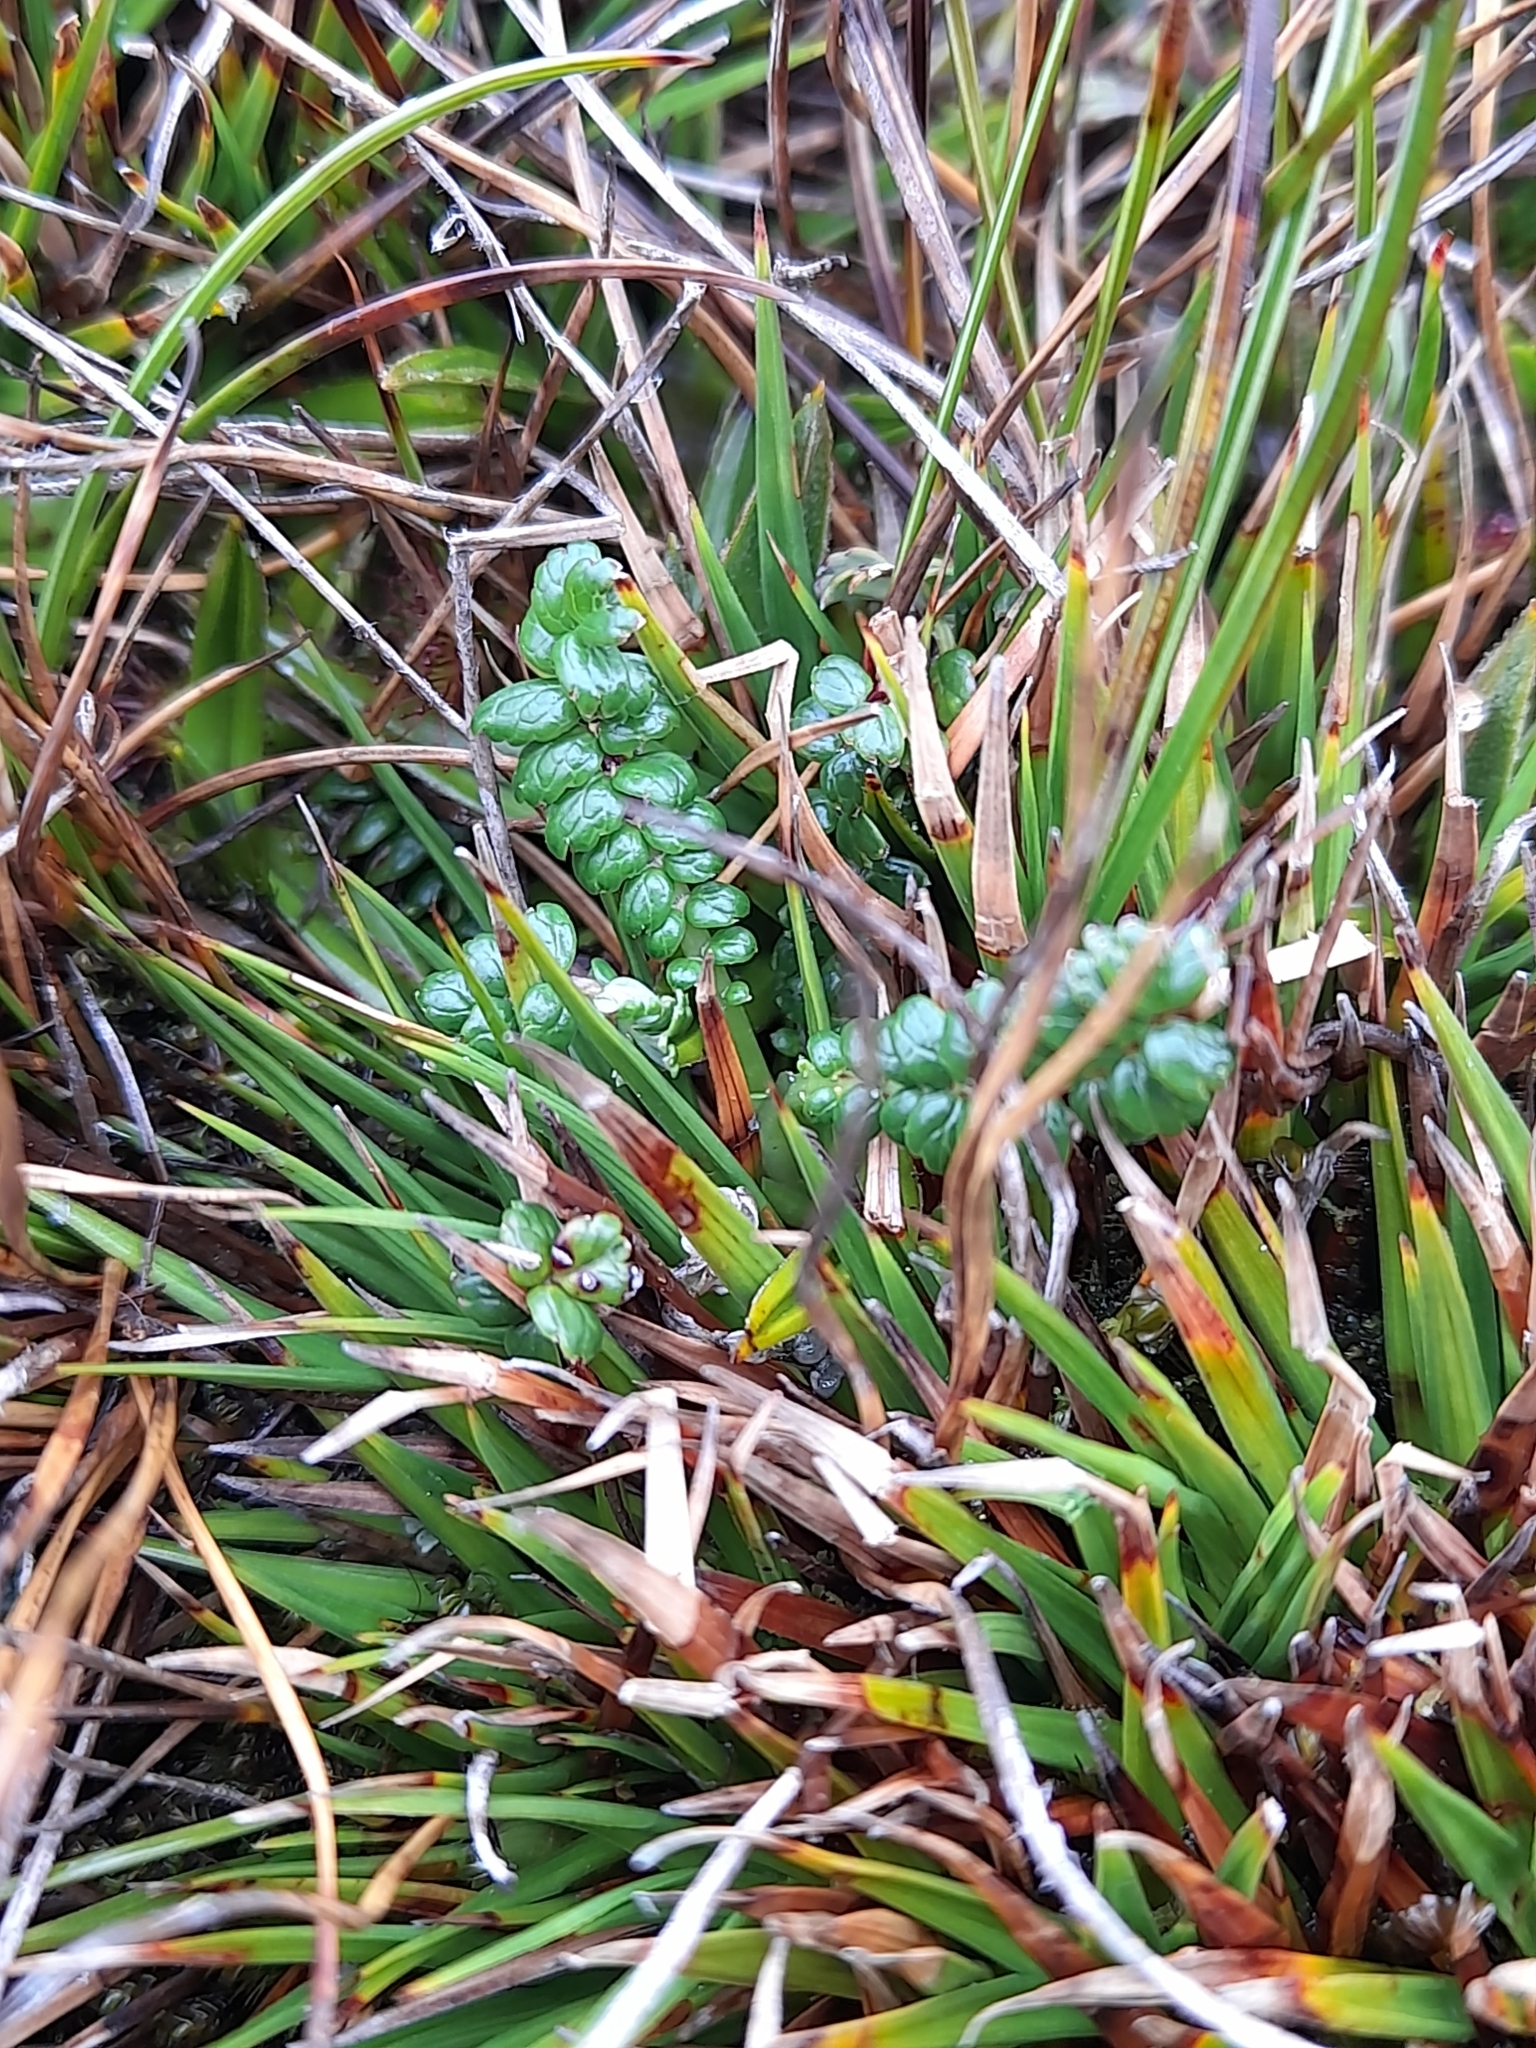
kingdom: Plantae
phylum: Tracheophyta
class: Magnoliopsida
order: Rosales
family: Rosaceae
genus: Acaena
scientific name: Acaena pumila
